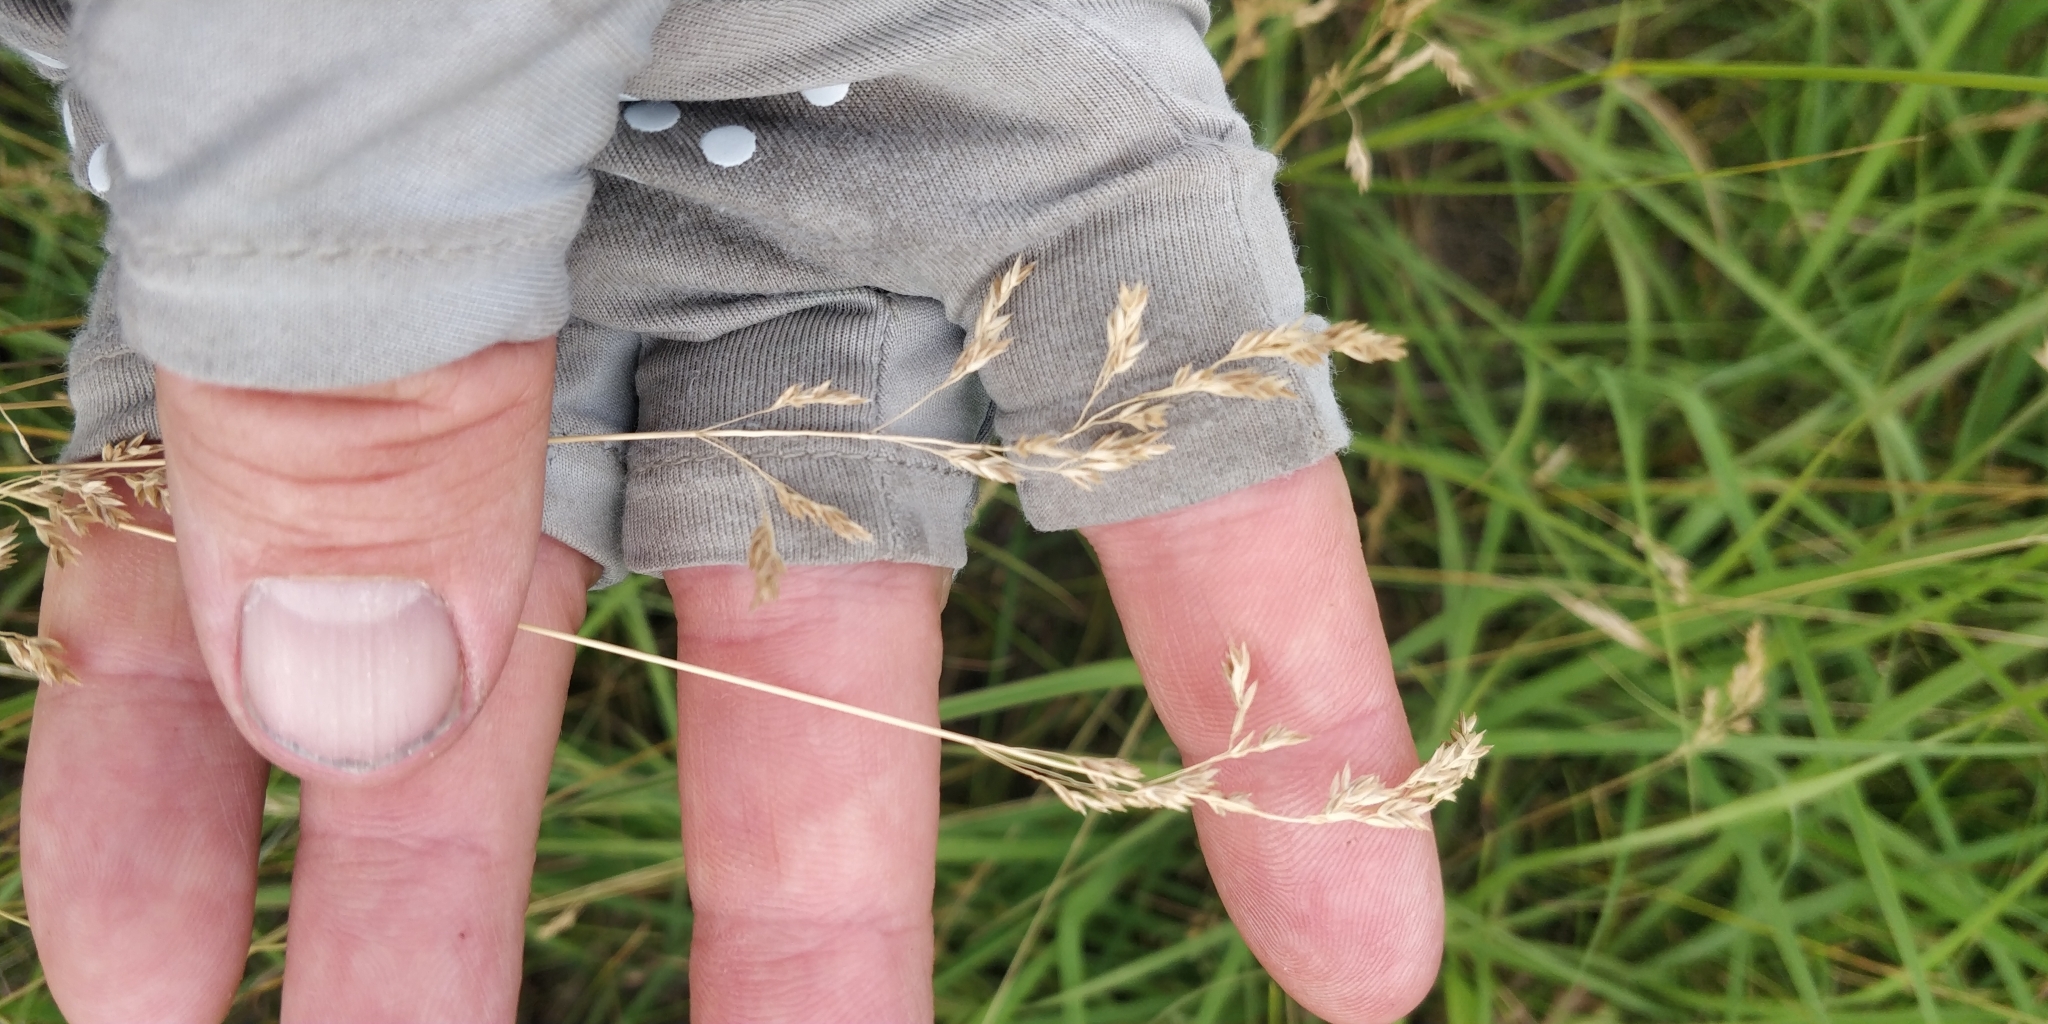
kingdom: Plantae
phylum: Tracheophyta
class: Liliopsida
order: Poales
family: Poaceae
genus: Poa
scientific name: Poa pratensis
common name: Kentucky bluegrass
